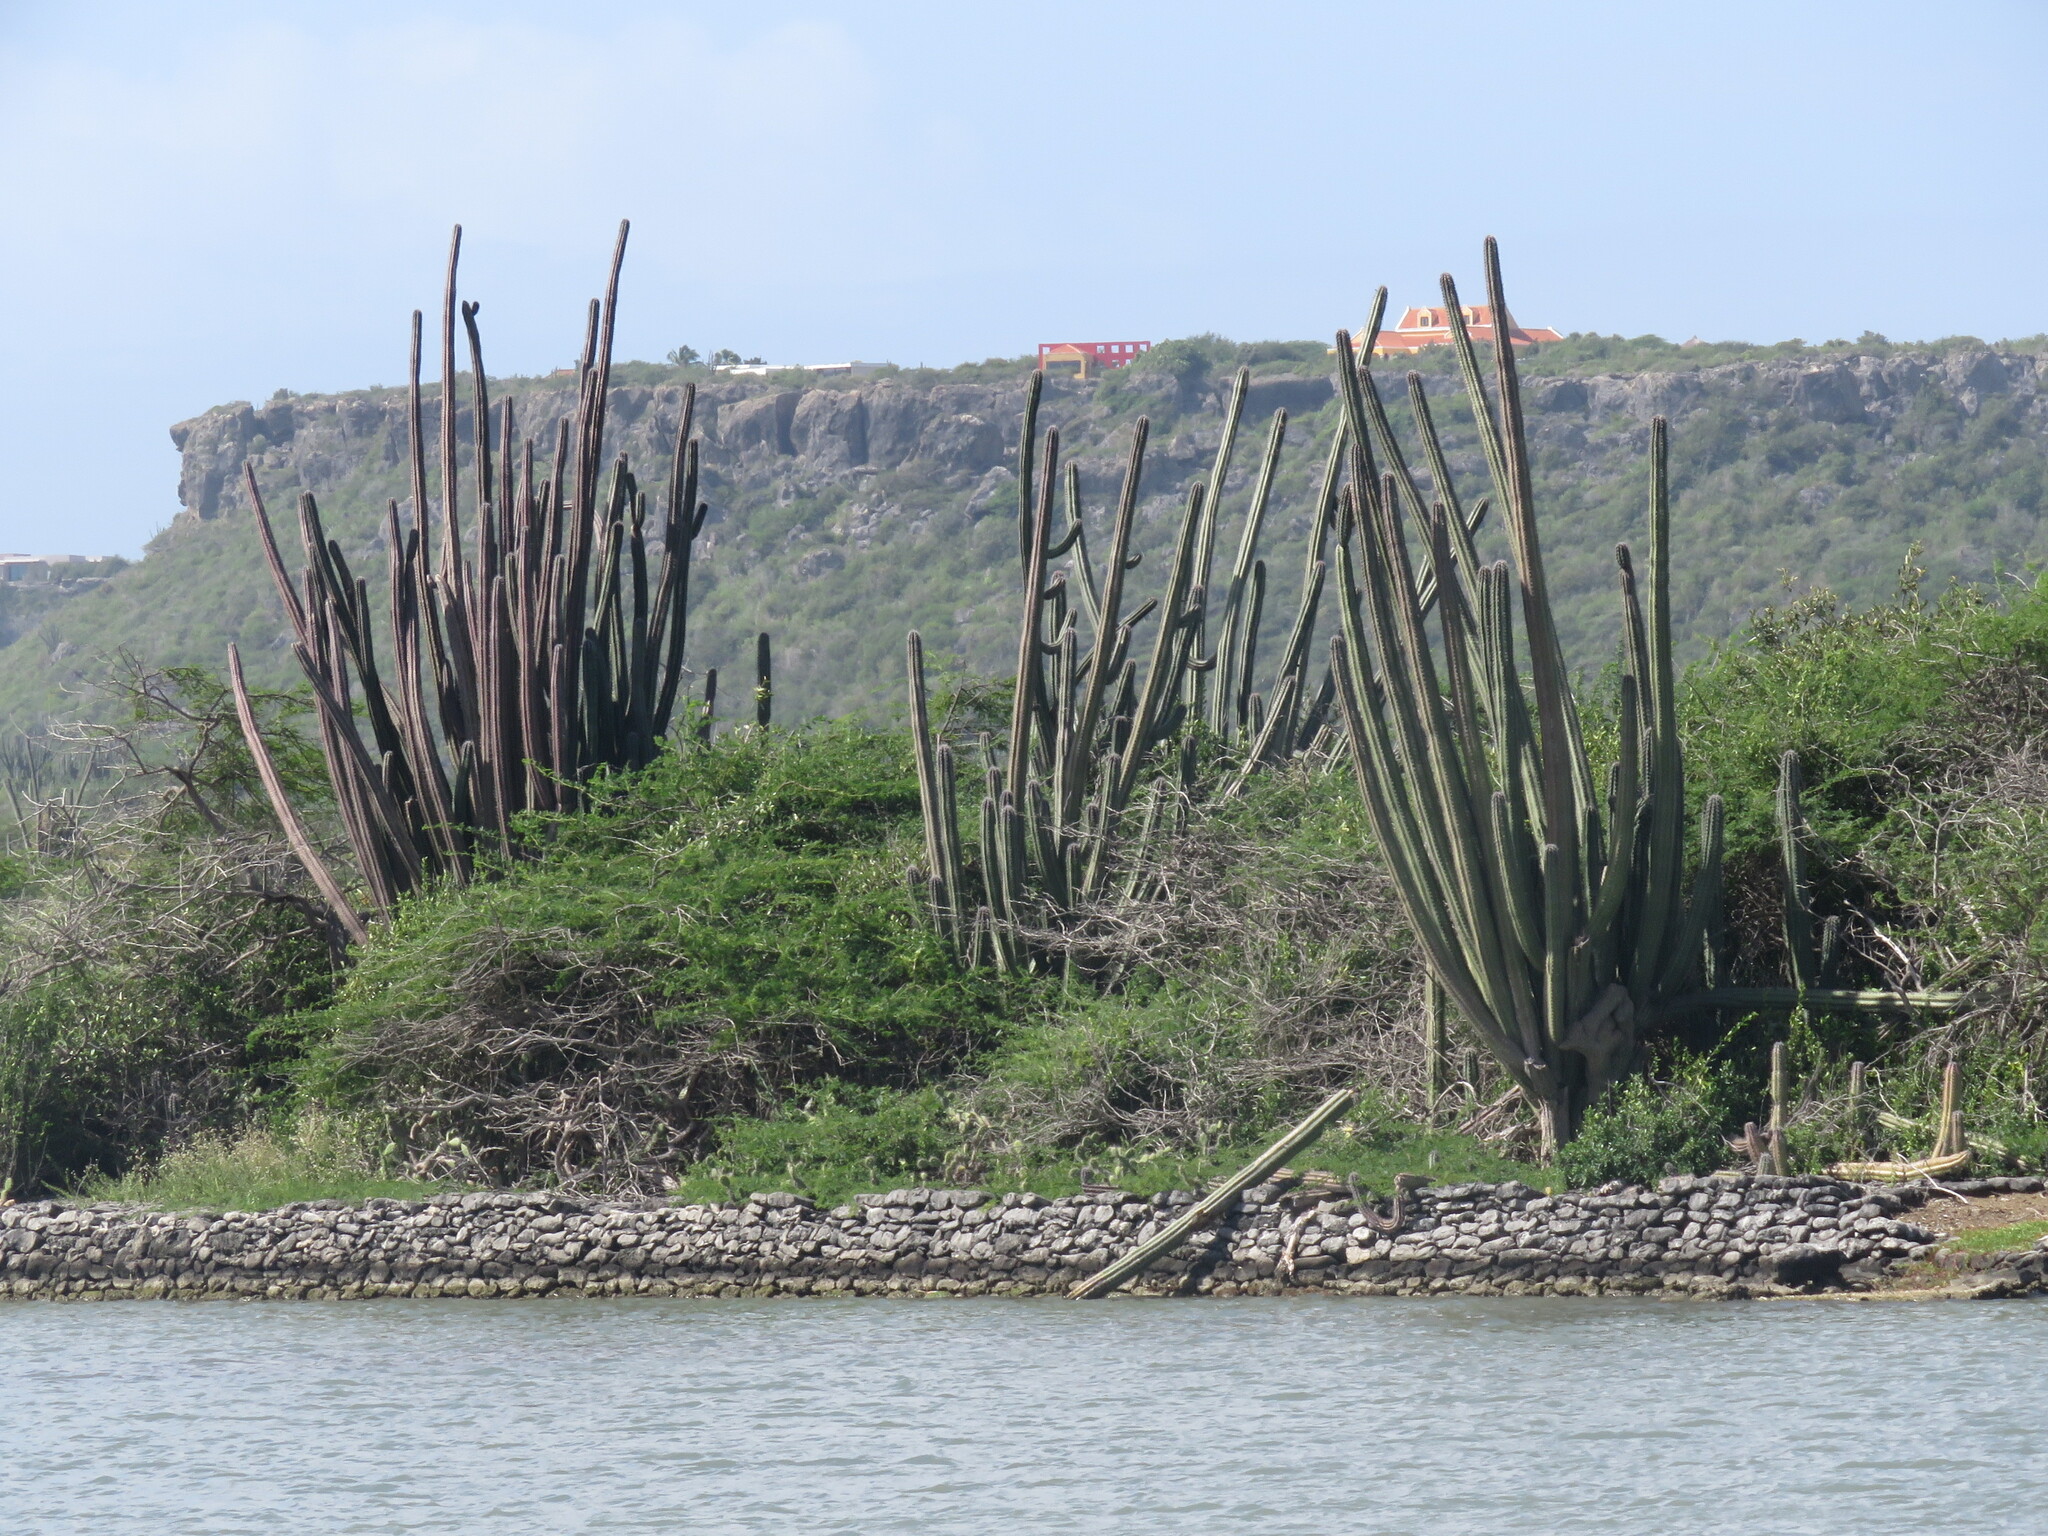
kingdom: Plantae
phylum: Tracheophyta
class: Magnoliopsida
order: Caryophyllales
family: Cactaceae
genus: Stenocereus
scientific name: Stenocereus griseus
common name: Tall candelabra cactus
